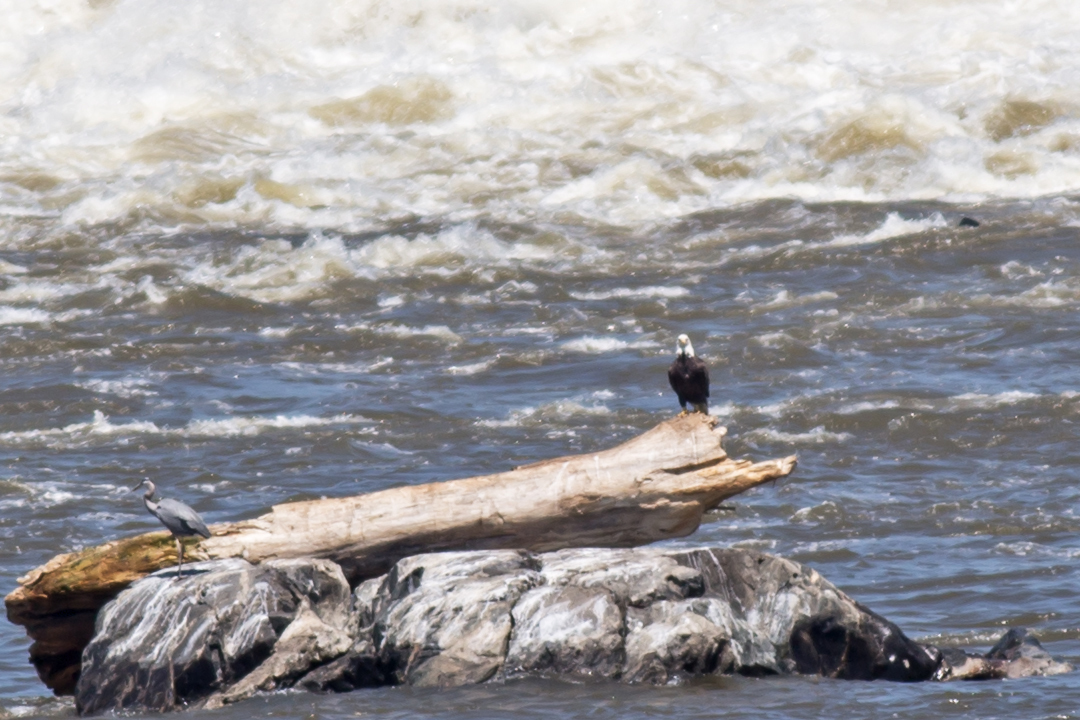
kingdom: Animalia
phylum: Chordata
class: Aves
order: Accipitriformes
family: Accipitridae
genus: Haliaeetus
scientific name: Haliaeetus leucocephalus
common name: Bald eagle
